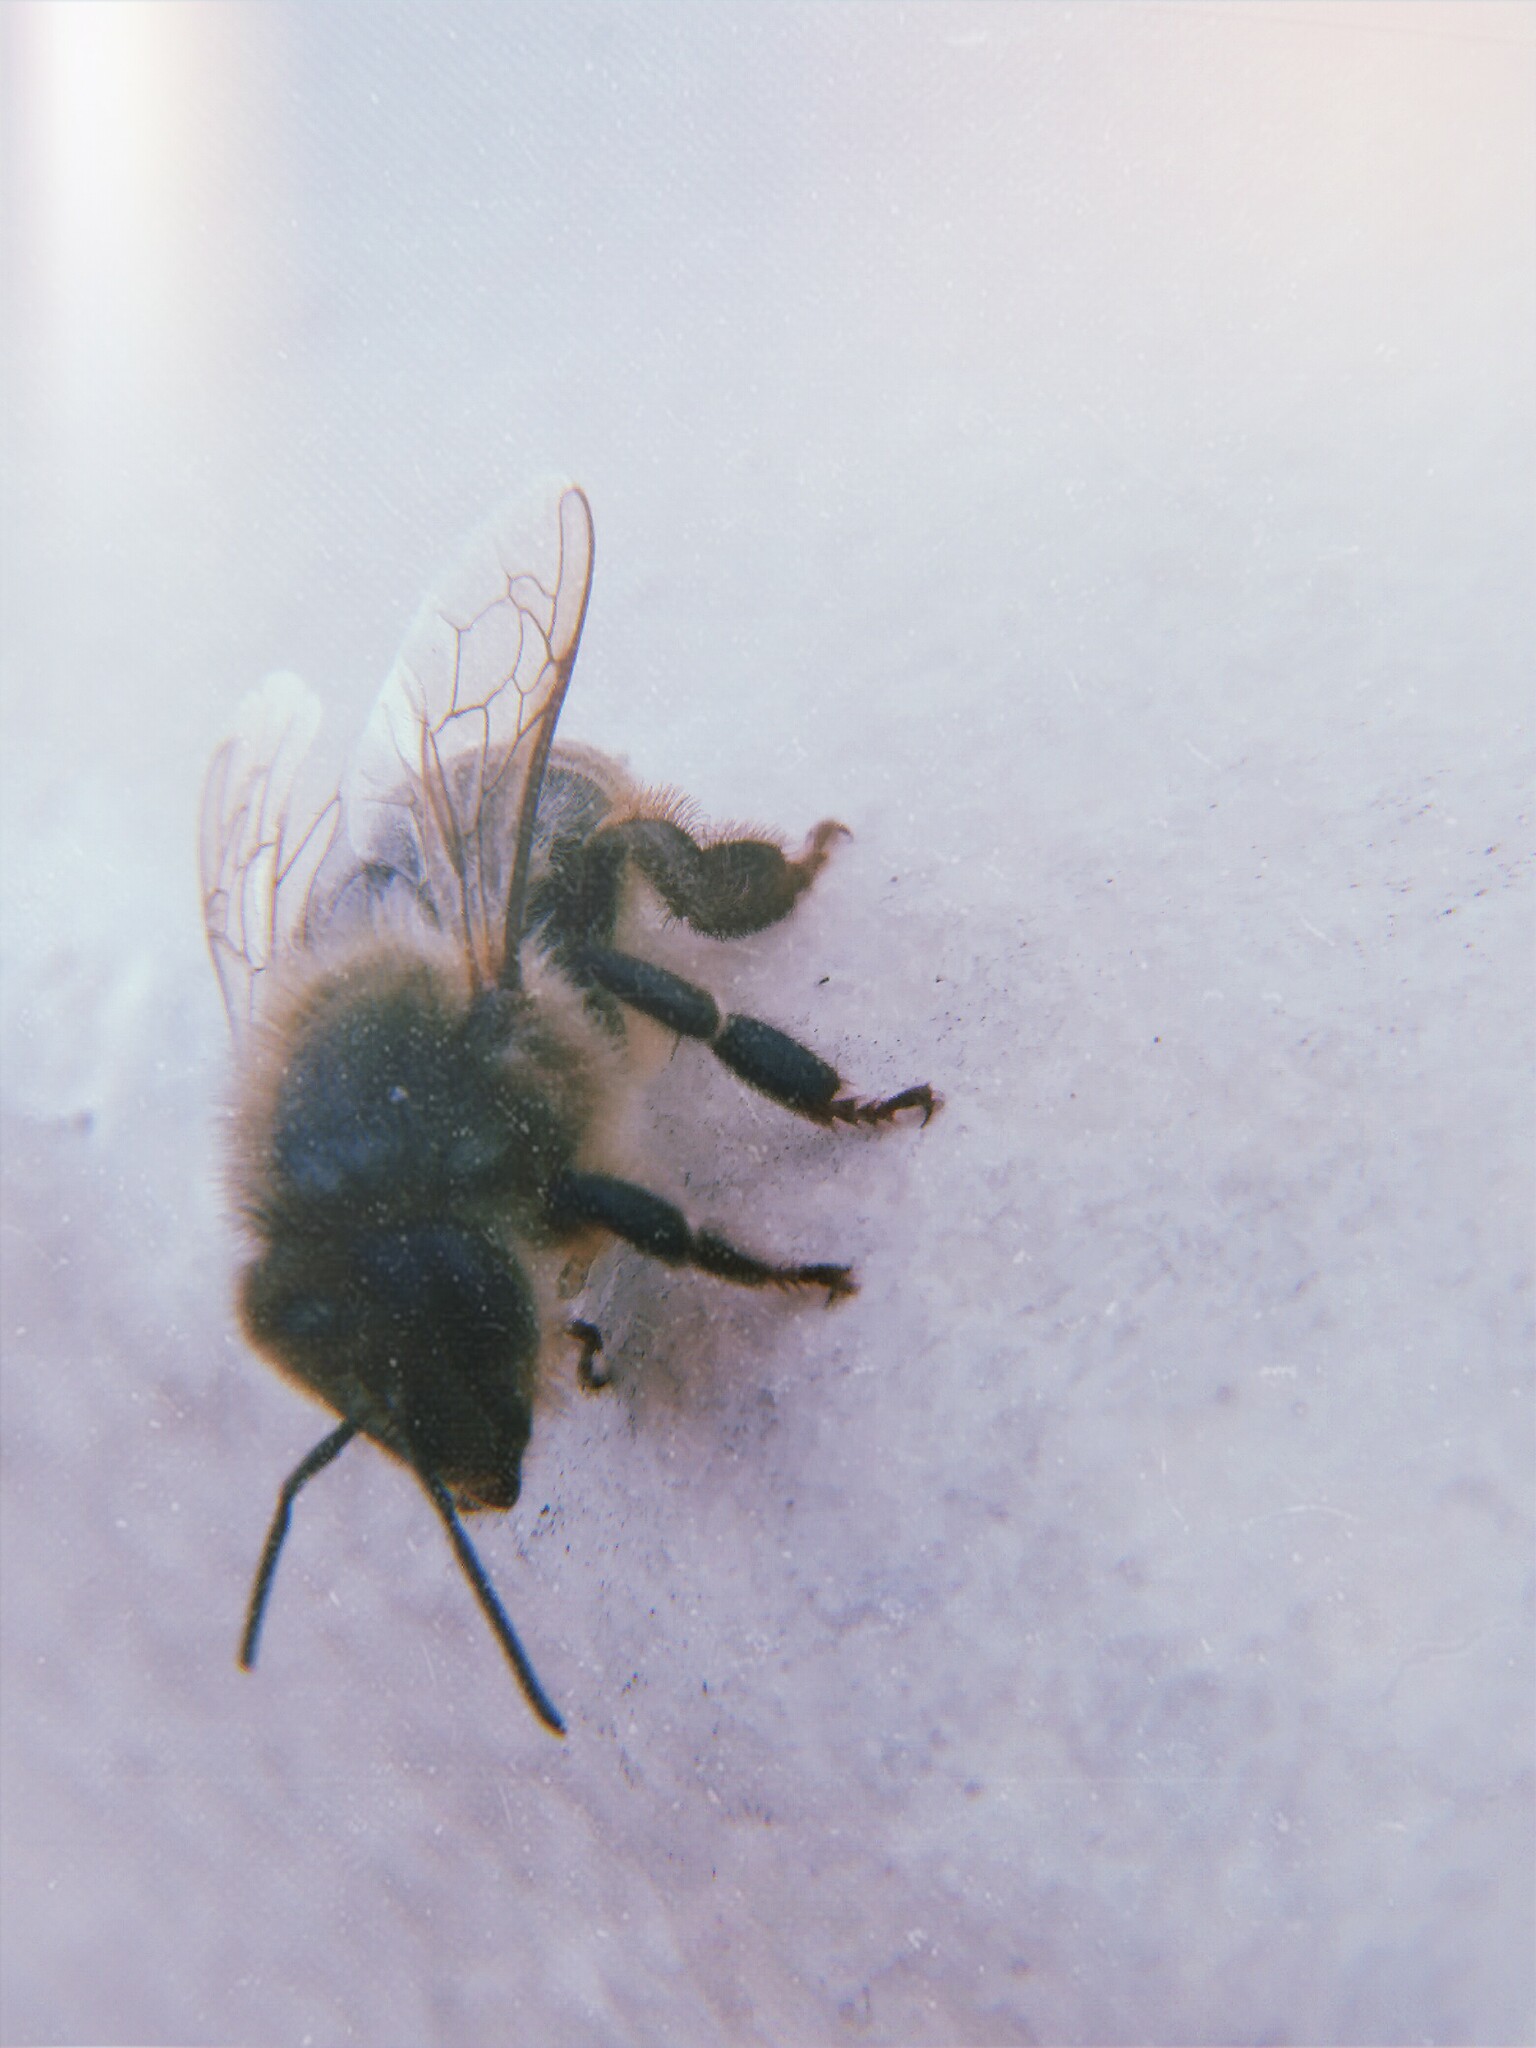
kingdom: Animalia
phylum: Arthropoda
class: Insecta
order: Hymenoptera
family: Apidae
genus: Apis
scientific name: Apis mellifera
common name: Honey bee
